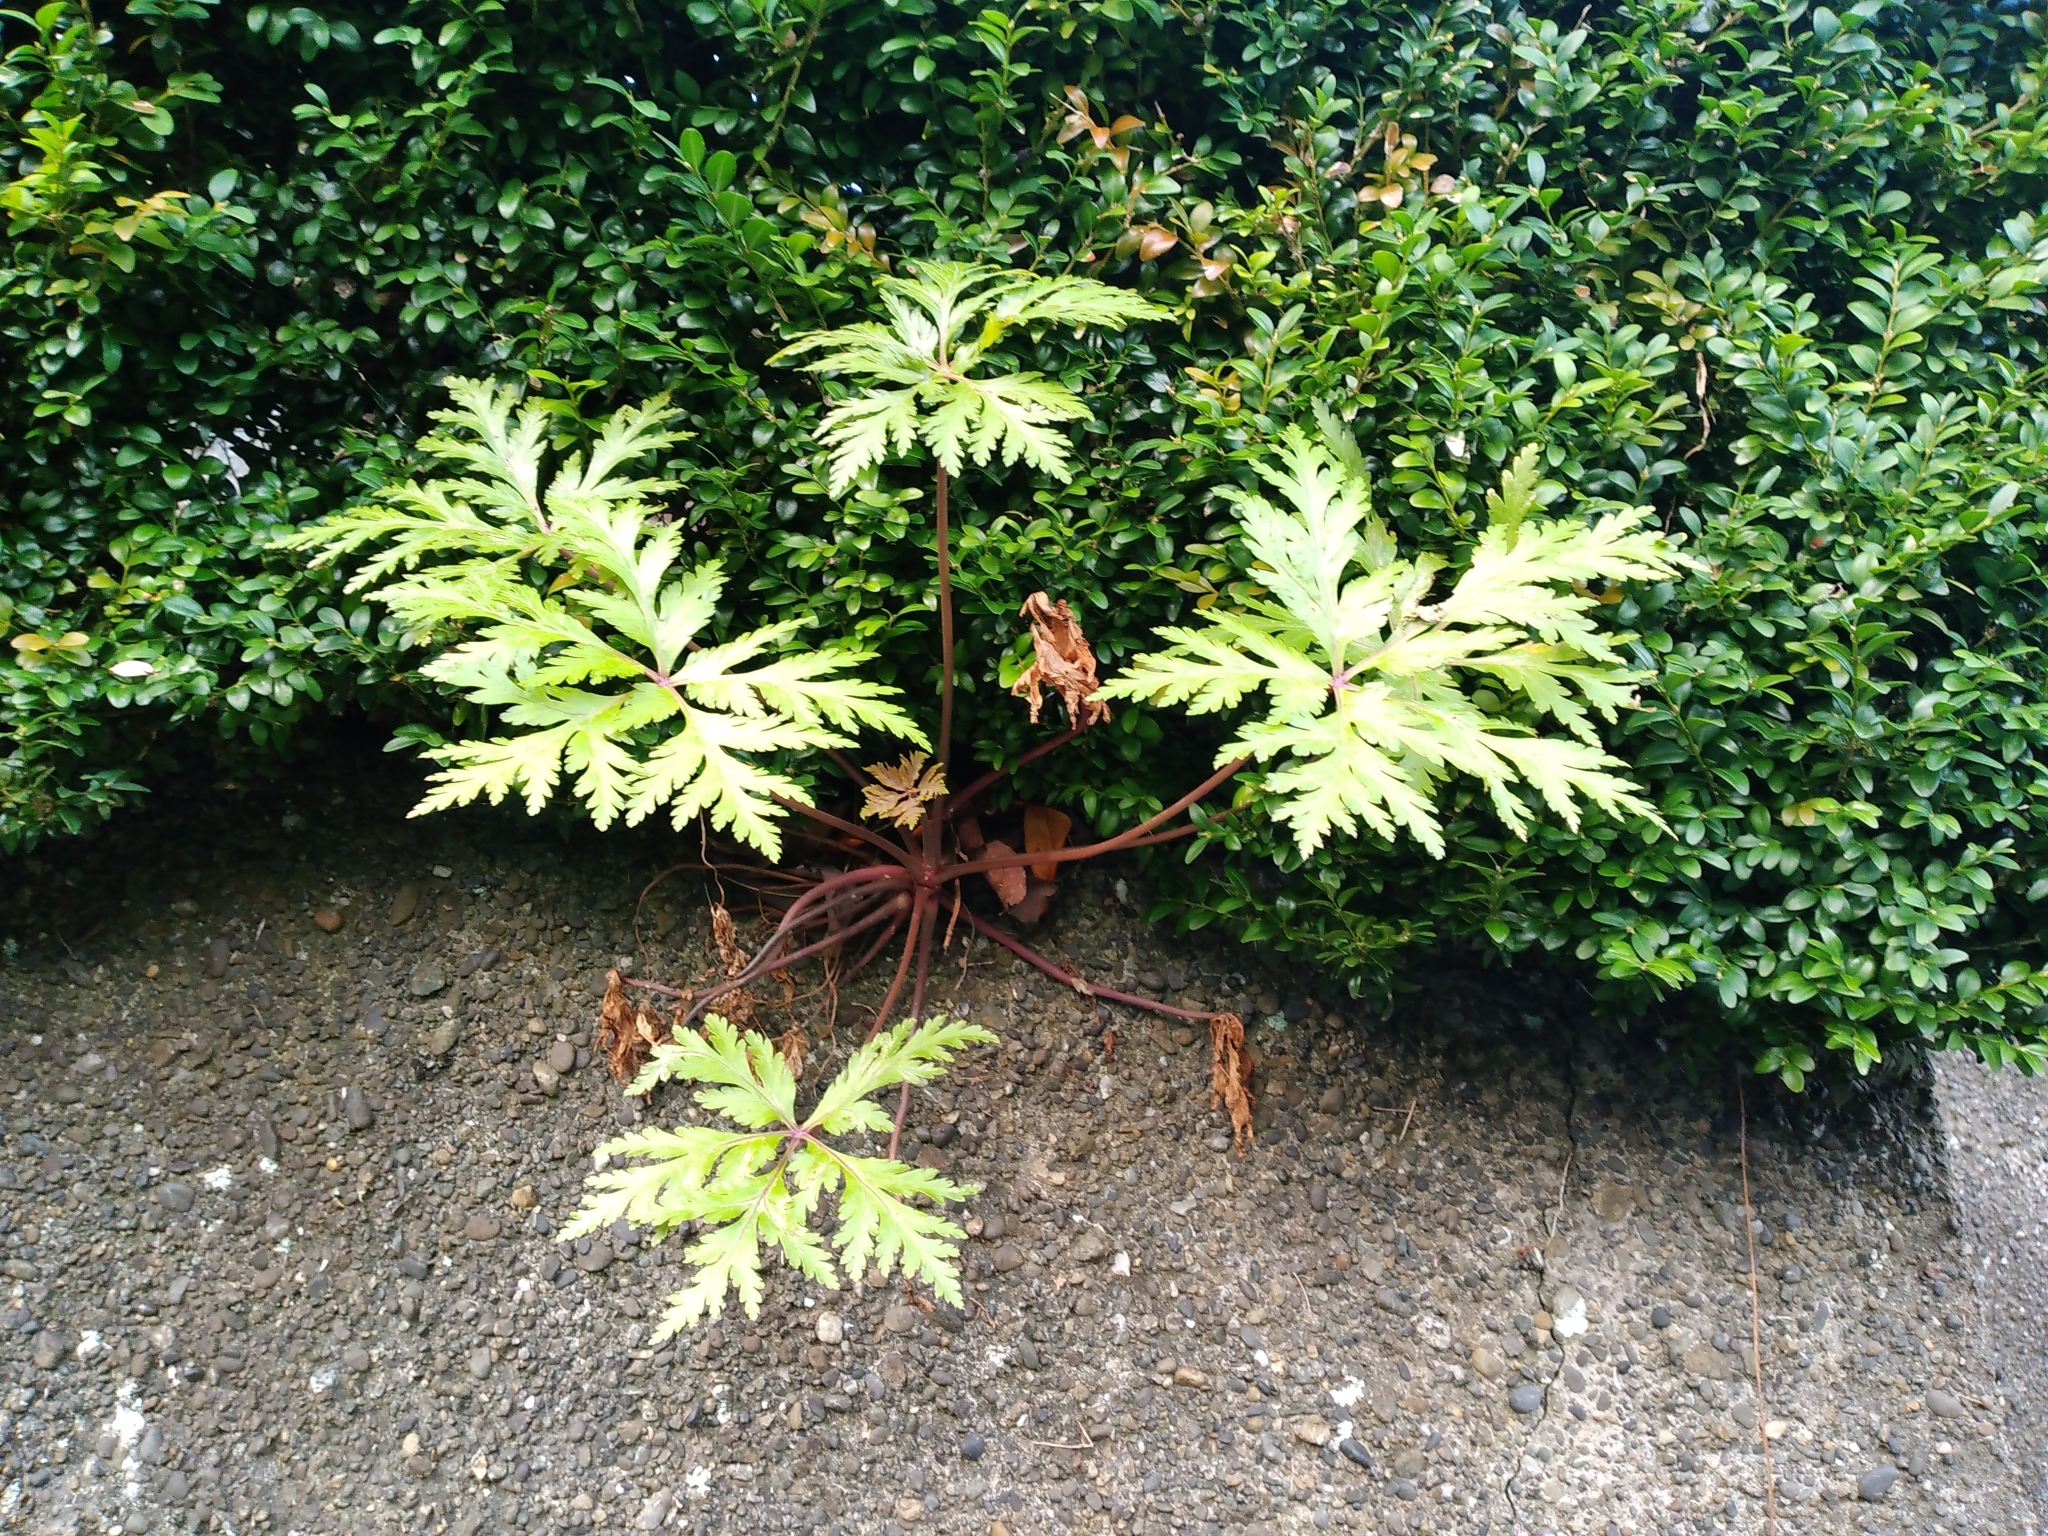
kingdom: Plantae
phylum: Tracheophyta
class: Magnoliopsida
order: Geraniales
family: Geraniaceae
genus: Geranium
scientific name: Geranium maderense
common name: Giant herb-robert
